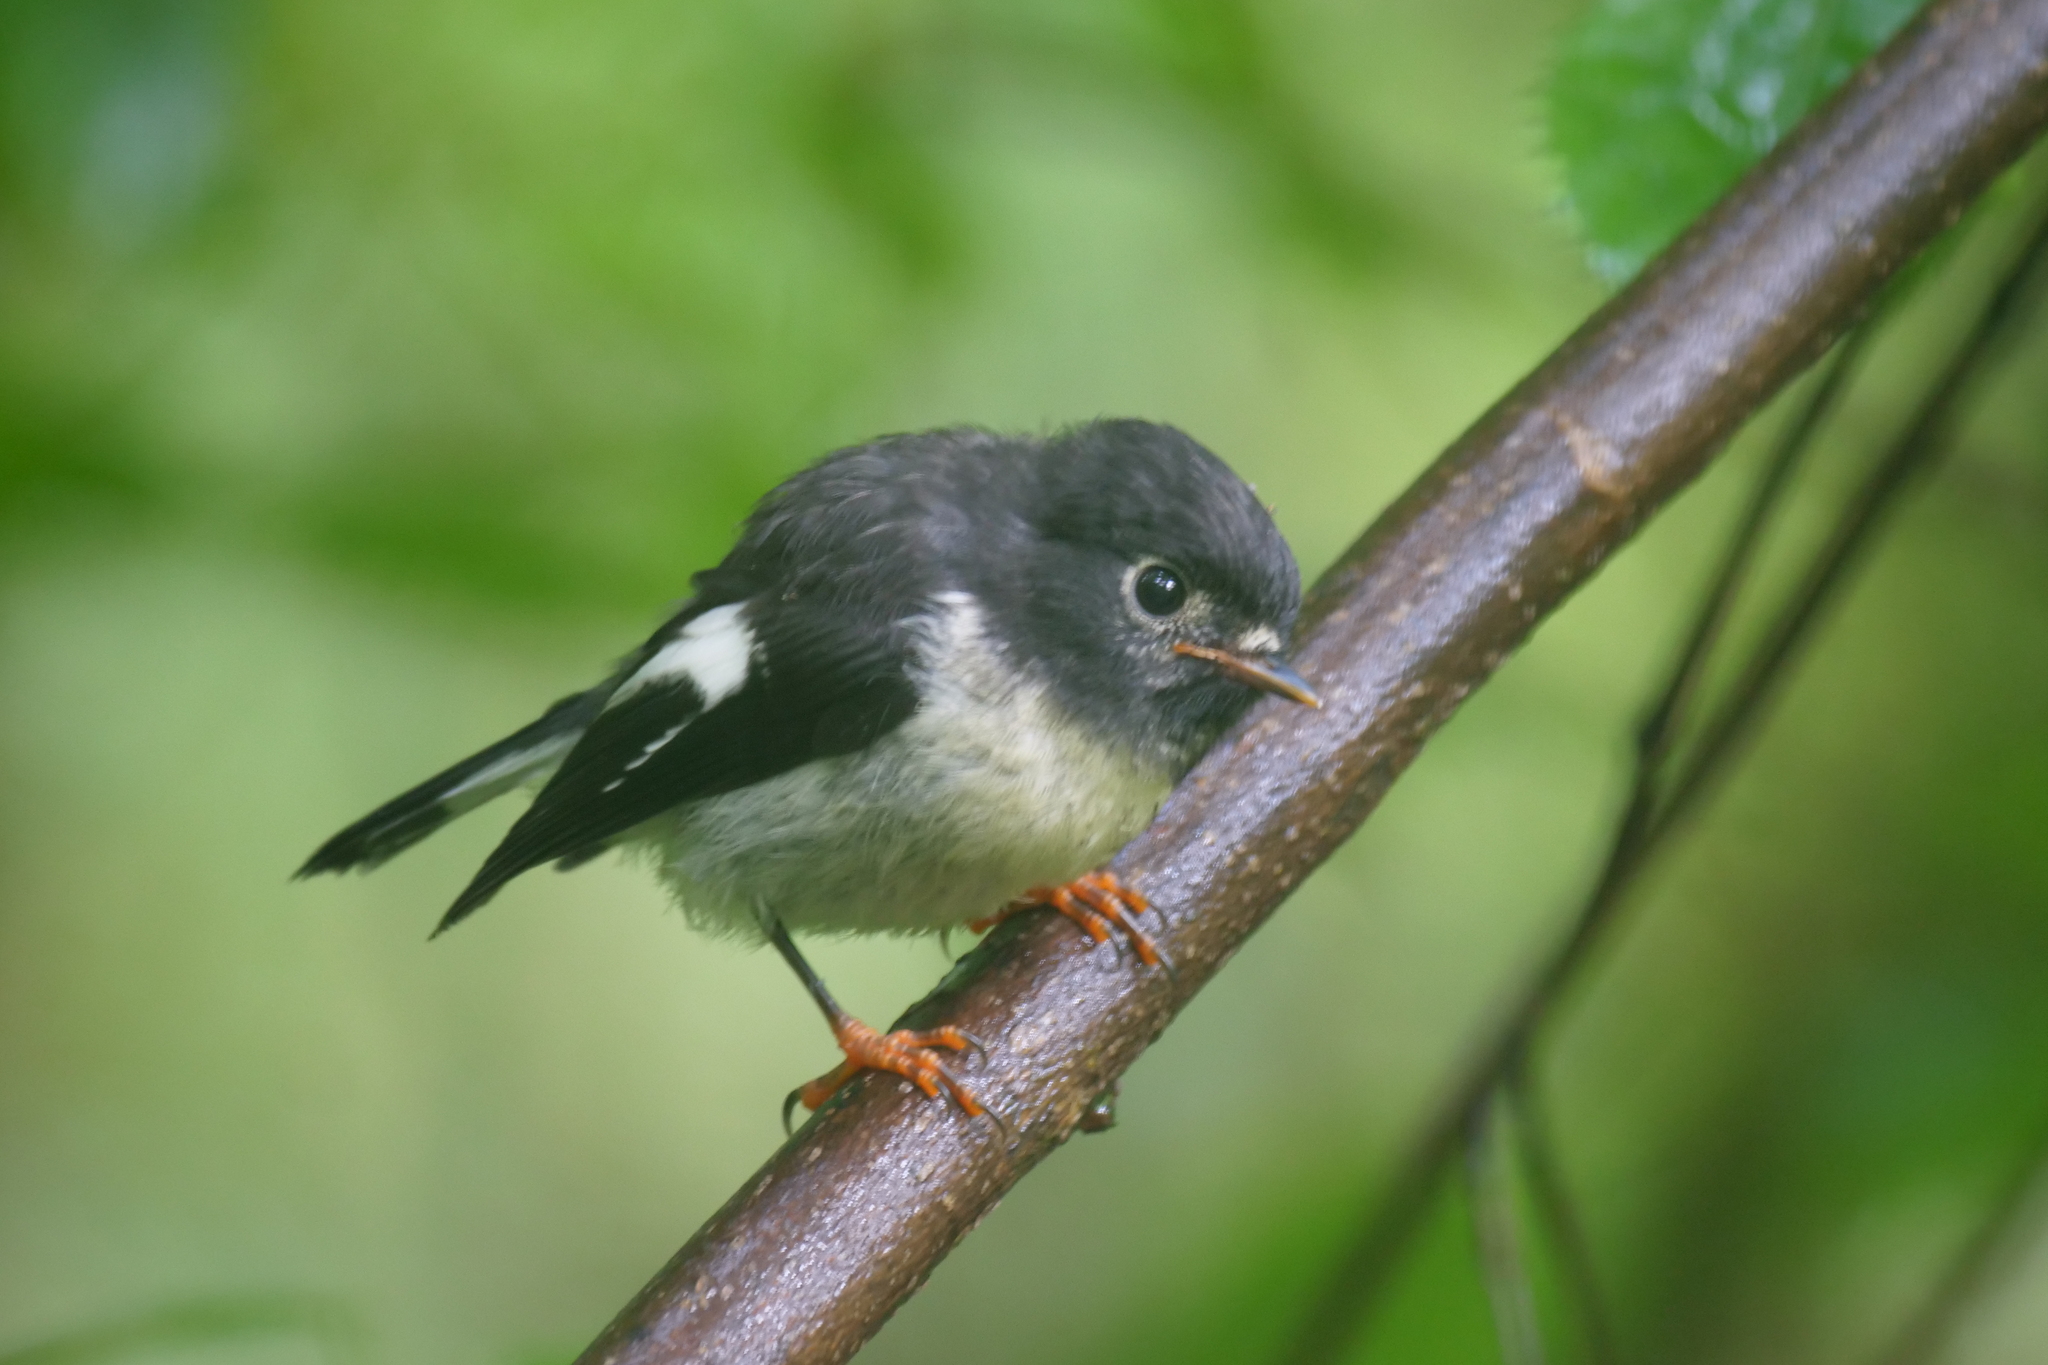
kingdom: Animalia
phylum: Chordata
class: Aves
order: Passeriformes
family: Petroicidae
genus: Petroica
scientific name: Petroica macrocephala
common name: Tomtit
